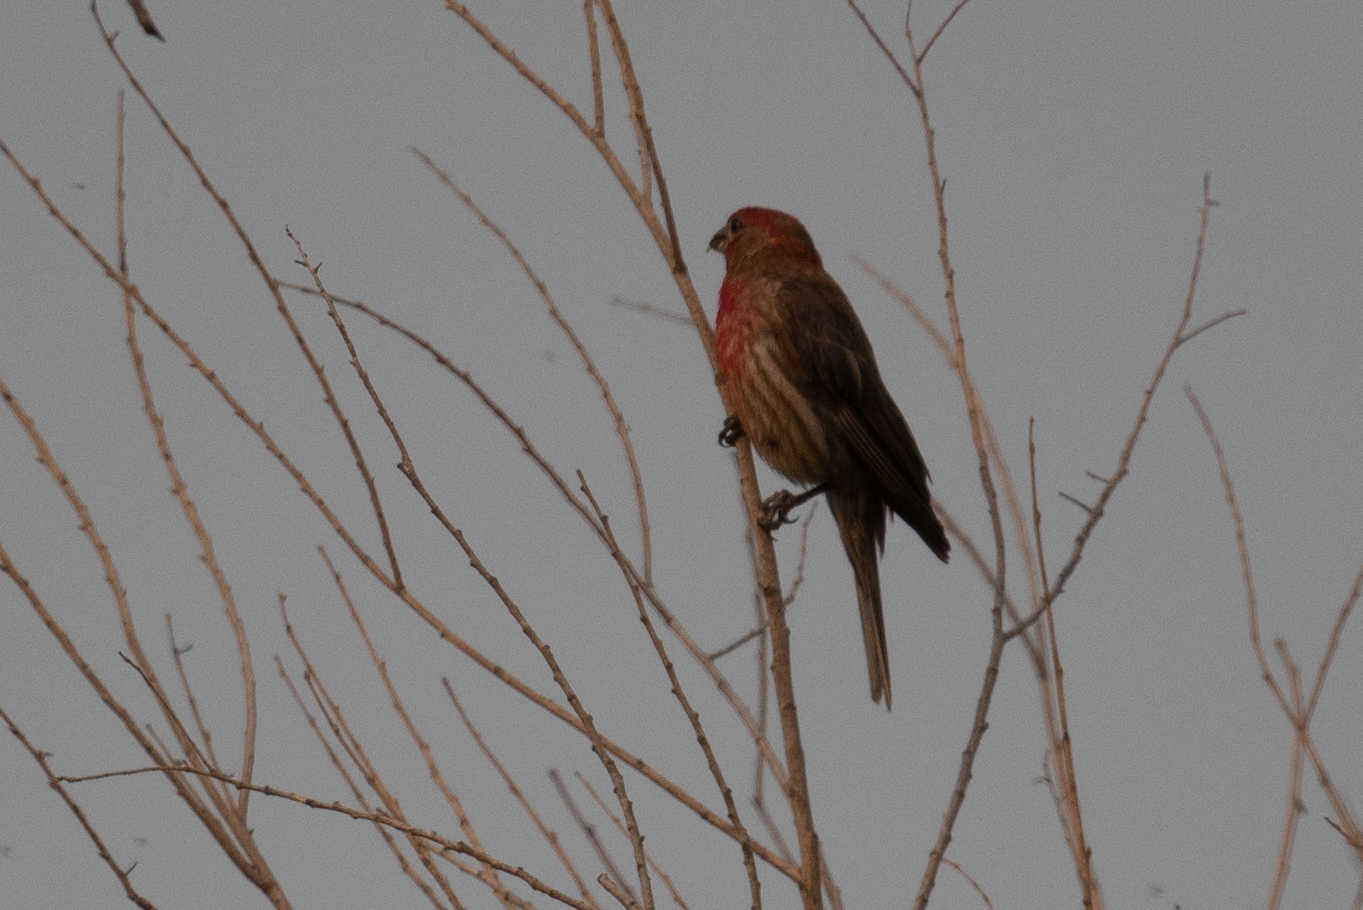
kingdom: Animalia
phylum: Chordata
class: Aves
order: Passeriformes
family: Fringillidae
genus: Haemorhous
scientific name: Haemorhous mexicanus
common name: House finch
